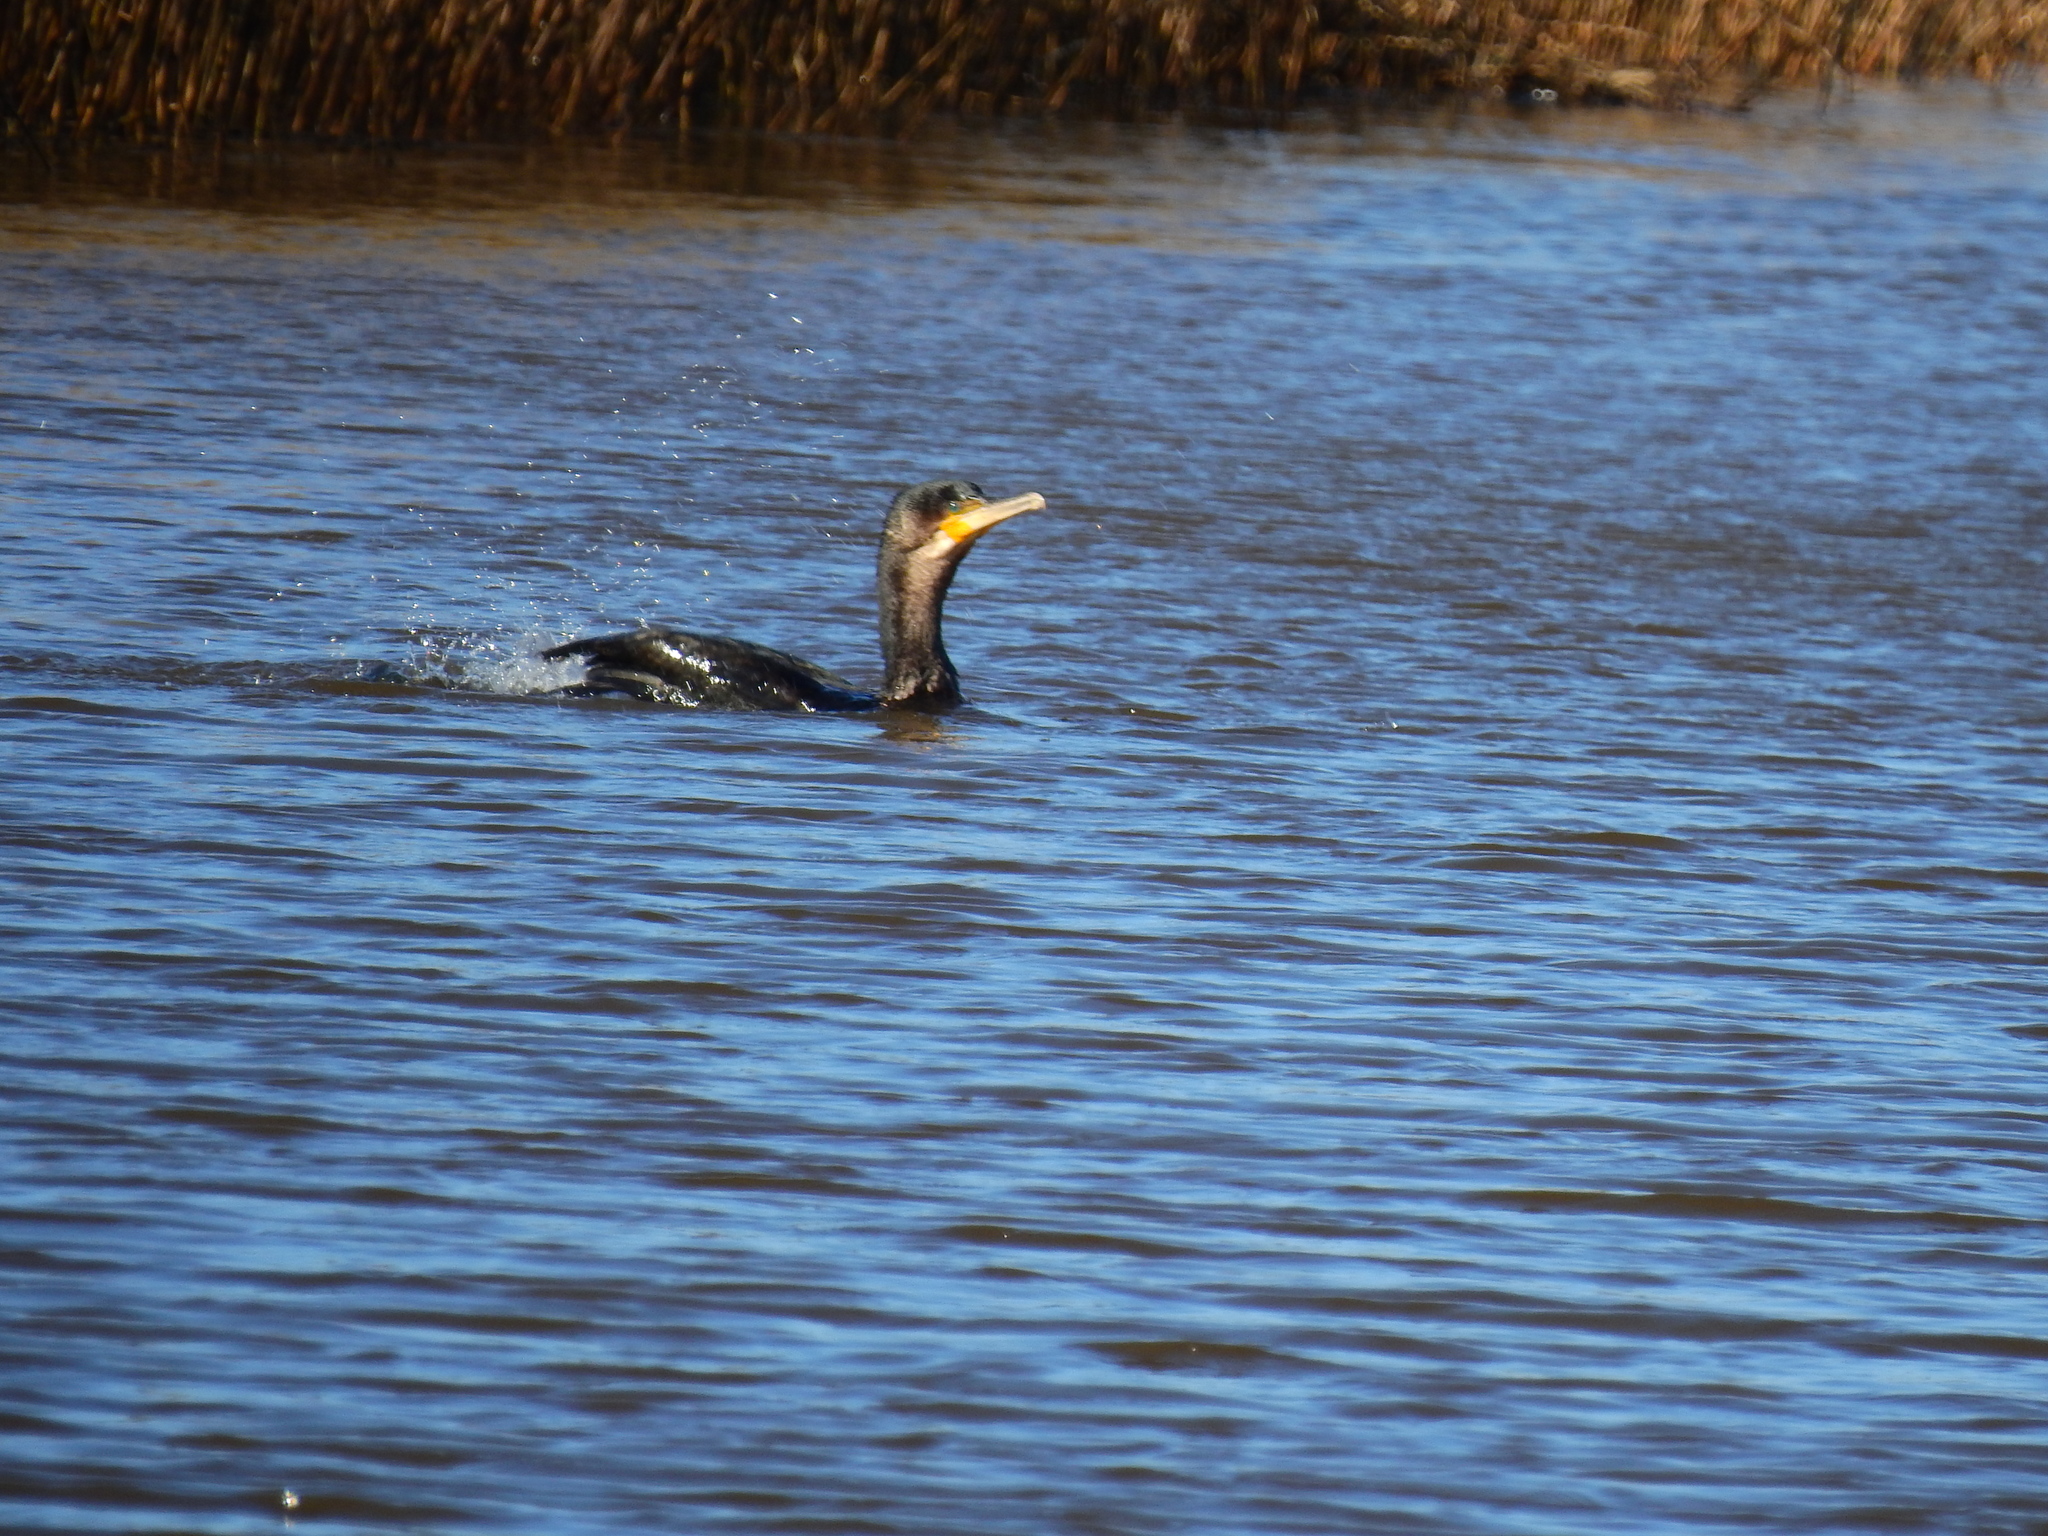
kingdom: Animalia
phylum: Chordata
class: Aves
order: Suliformes
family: Phalacrocoracidae
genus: Phalacrocorax
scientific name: Phalacrocorax carbo
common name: Great cormorant
